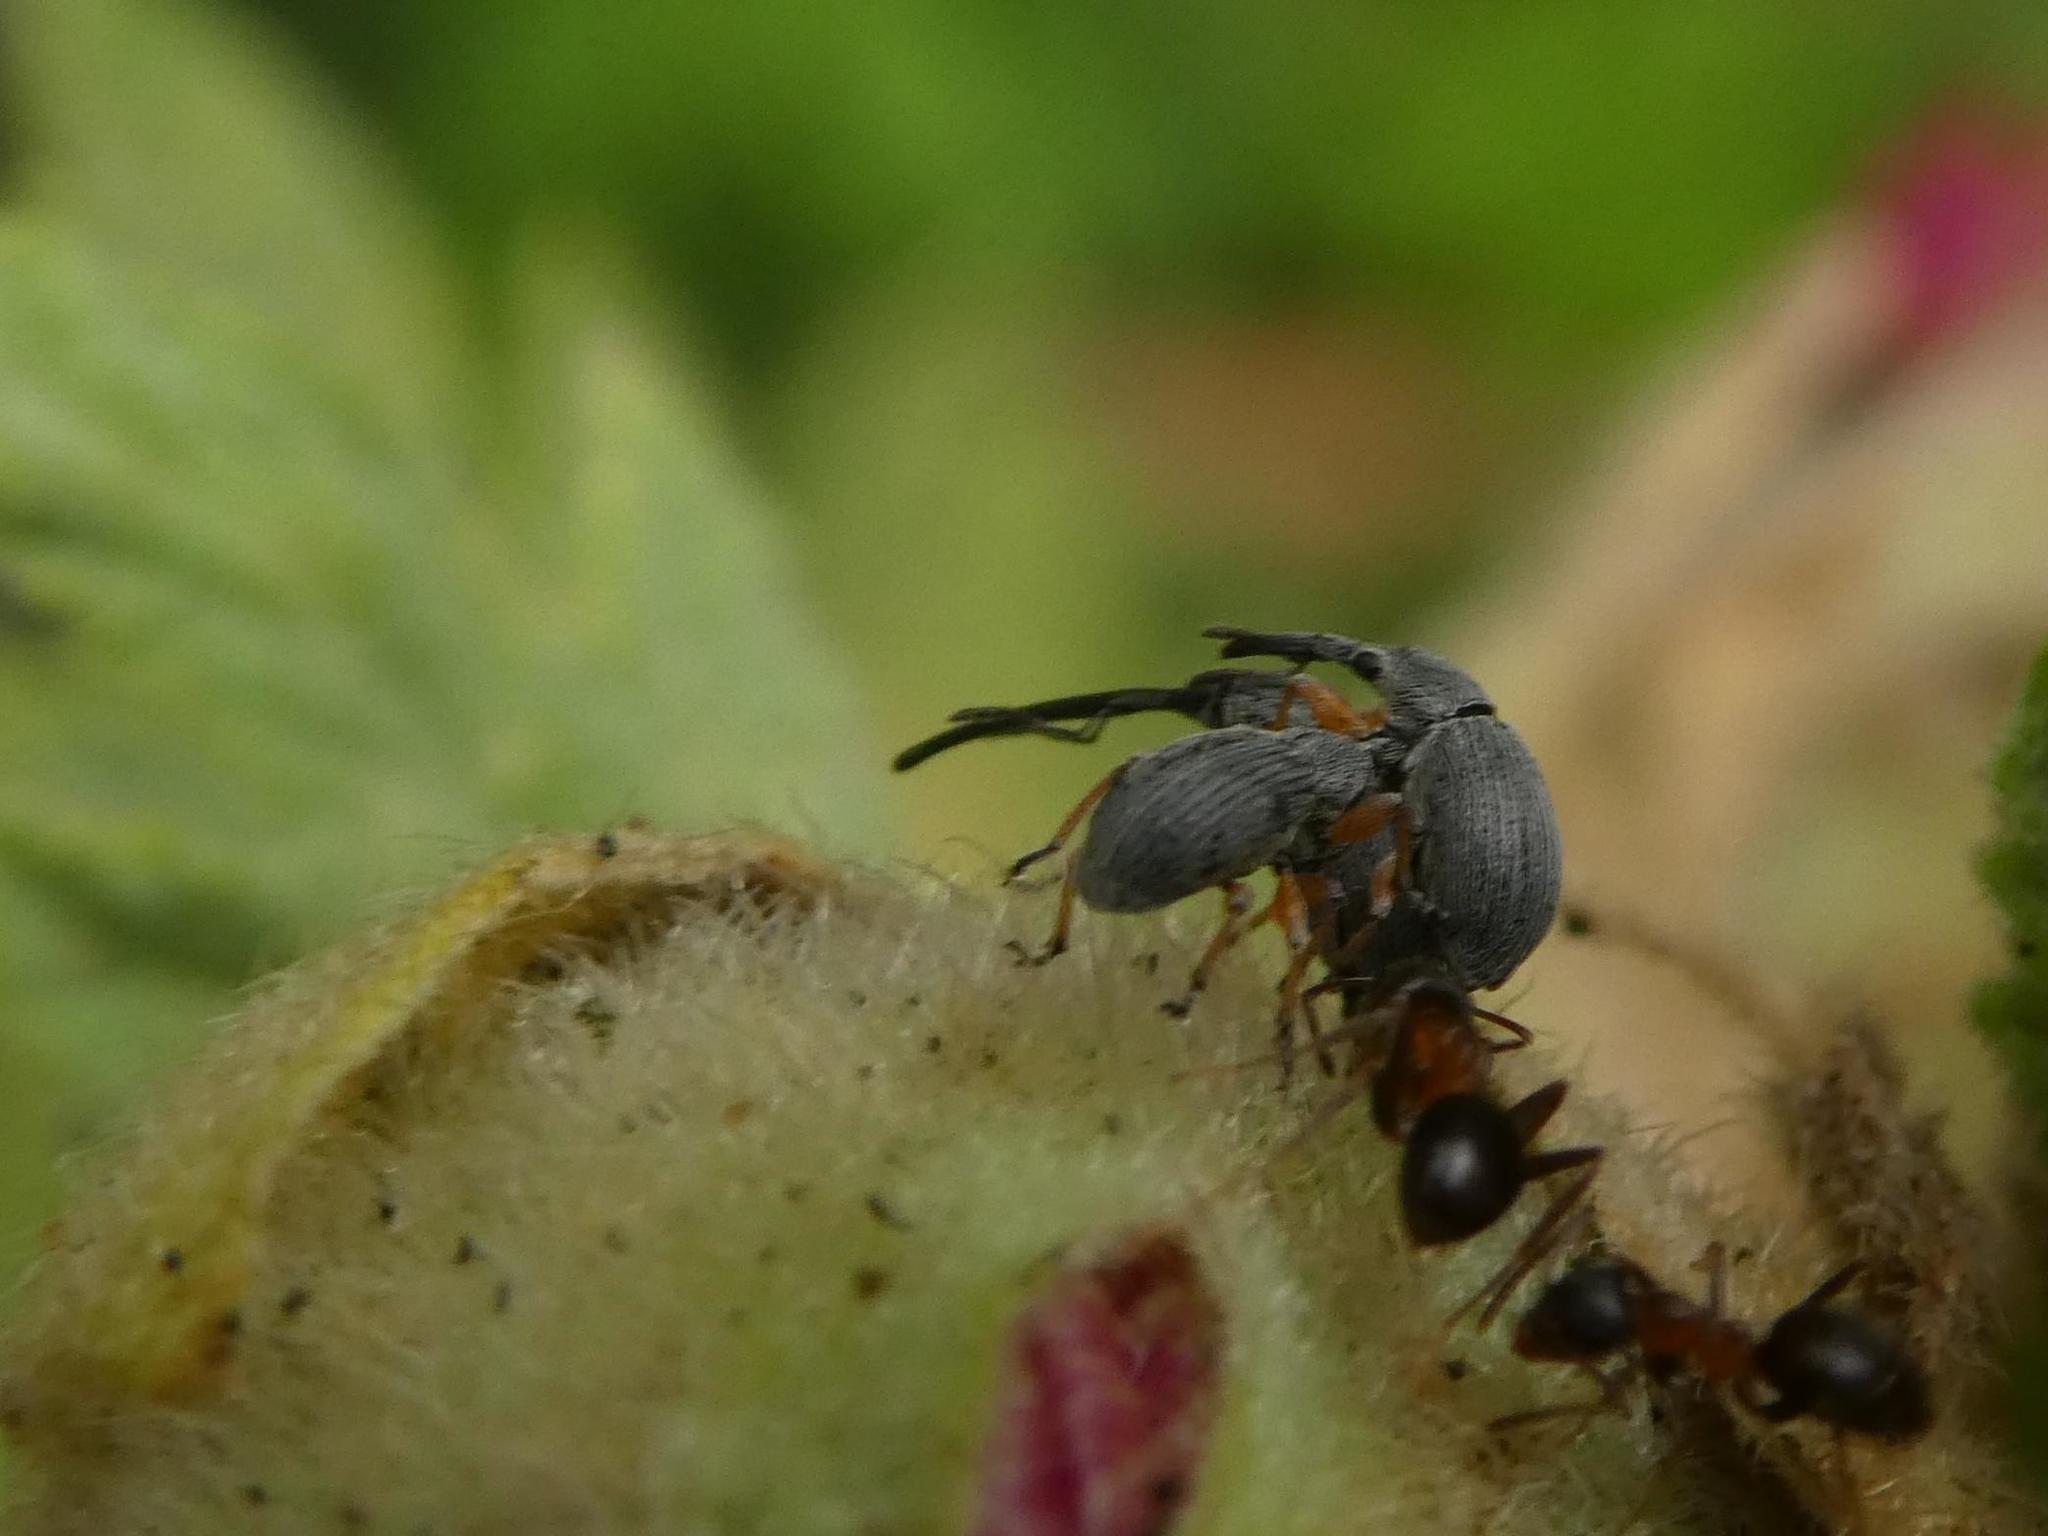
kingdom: Animalia
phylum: Arthropoda
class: Insecta
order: Coleoptera
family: Brentidae
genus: Rhopalapion
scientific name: Rhopalapion longirostre
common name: Hollyhock weevil
